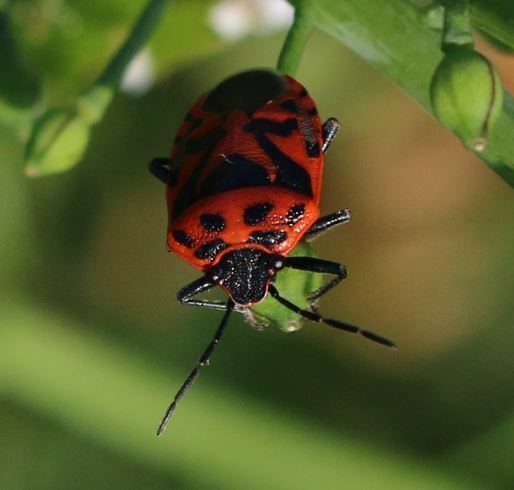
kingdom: Animalia
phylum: Arthropoda
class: Insecta
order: Hemiptera
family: Pentatomidae
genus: Eurydema
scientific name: Eurydema ornata
